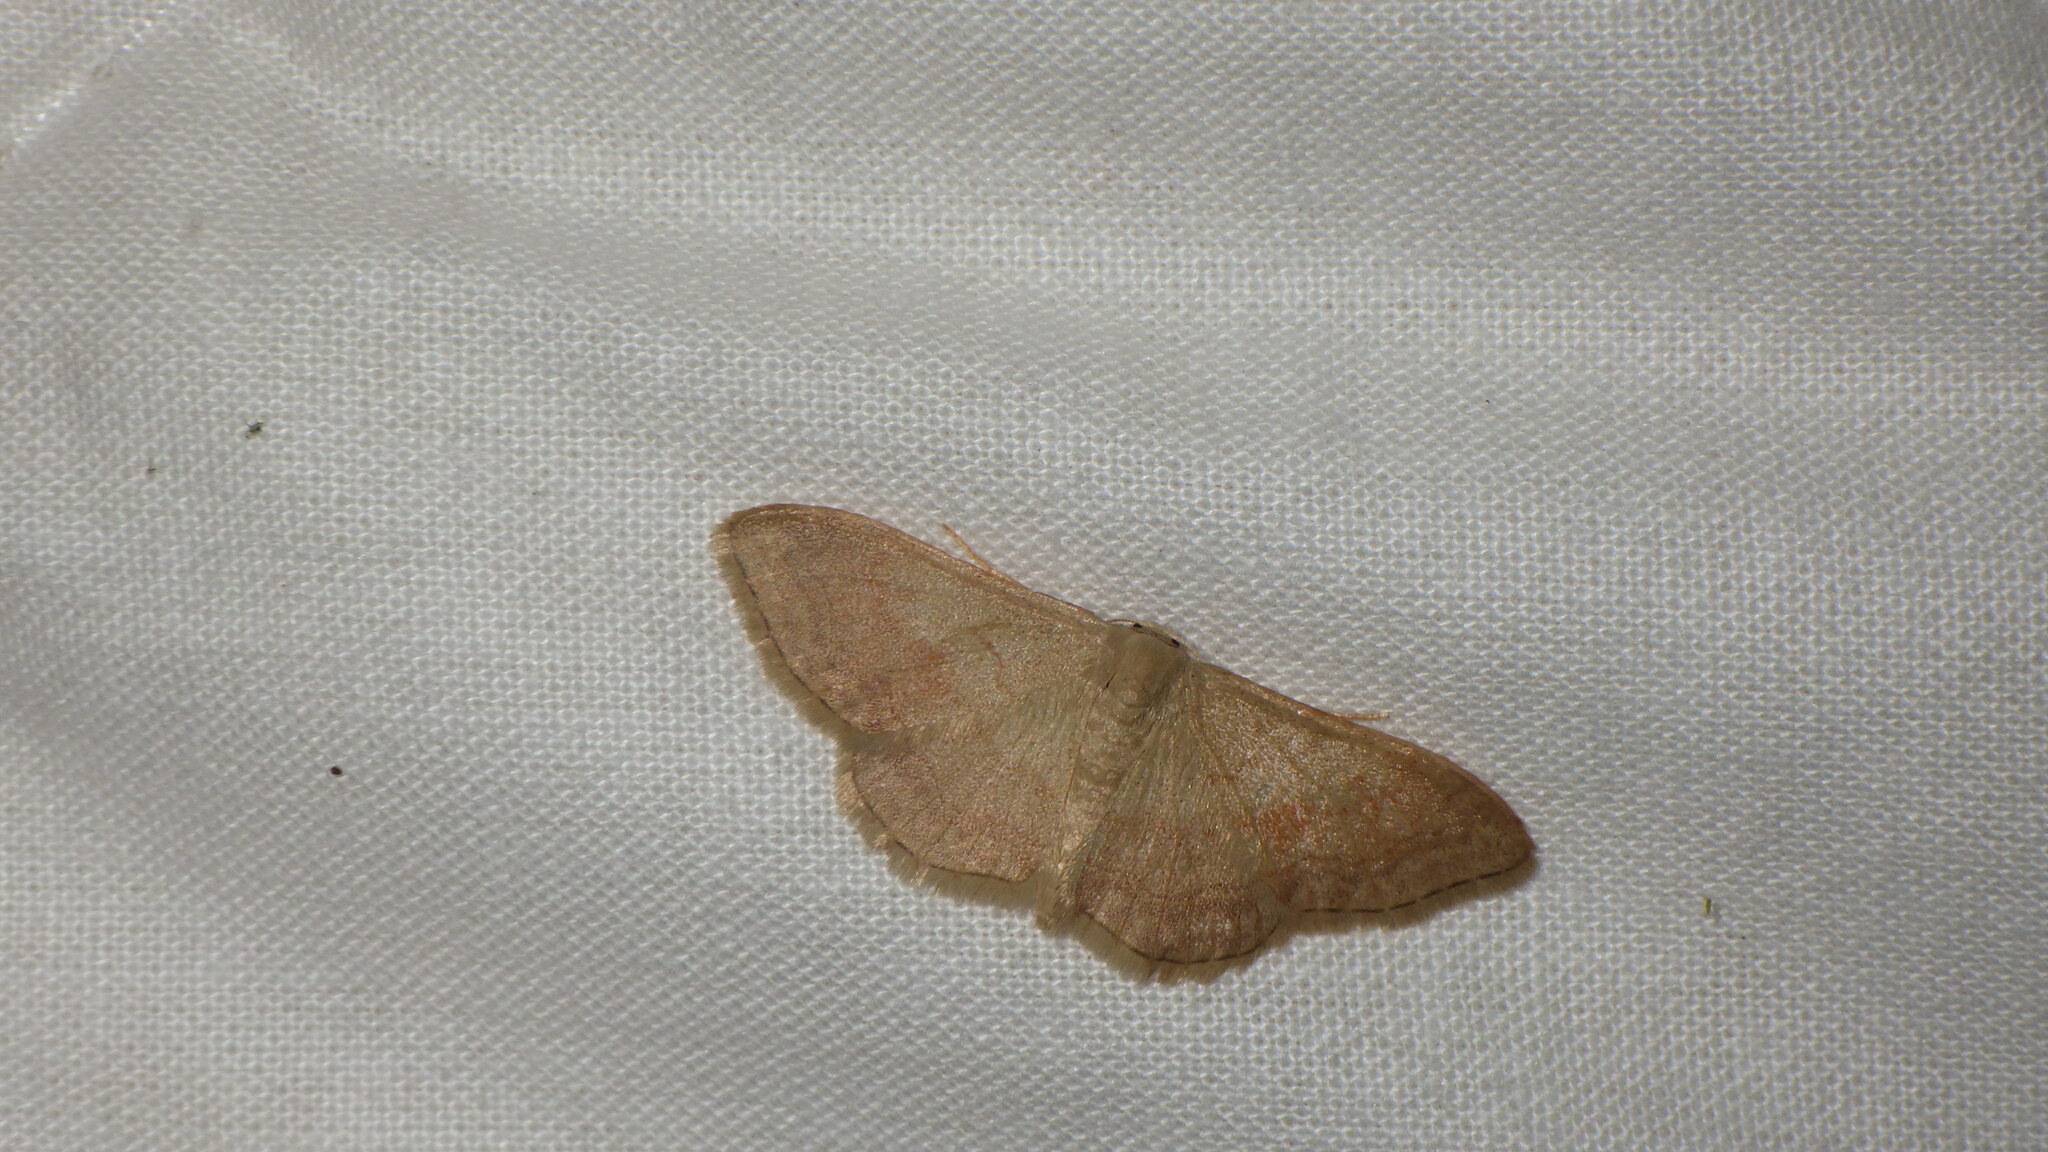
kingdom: Animalia
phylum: Arthropoda
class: Insecta
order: Lepidoptera
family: Geometridae
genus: Idaea
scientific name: Idaea bilinearia
